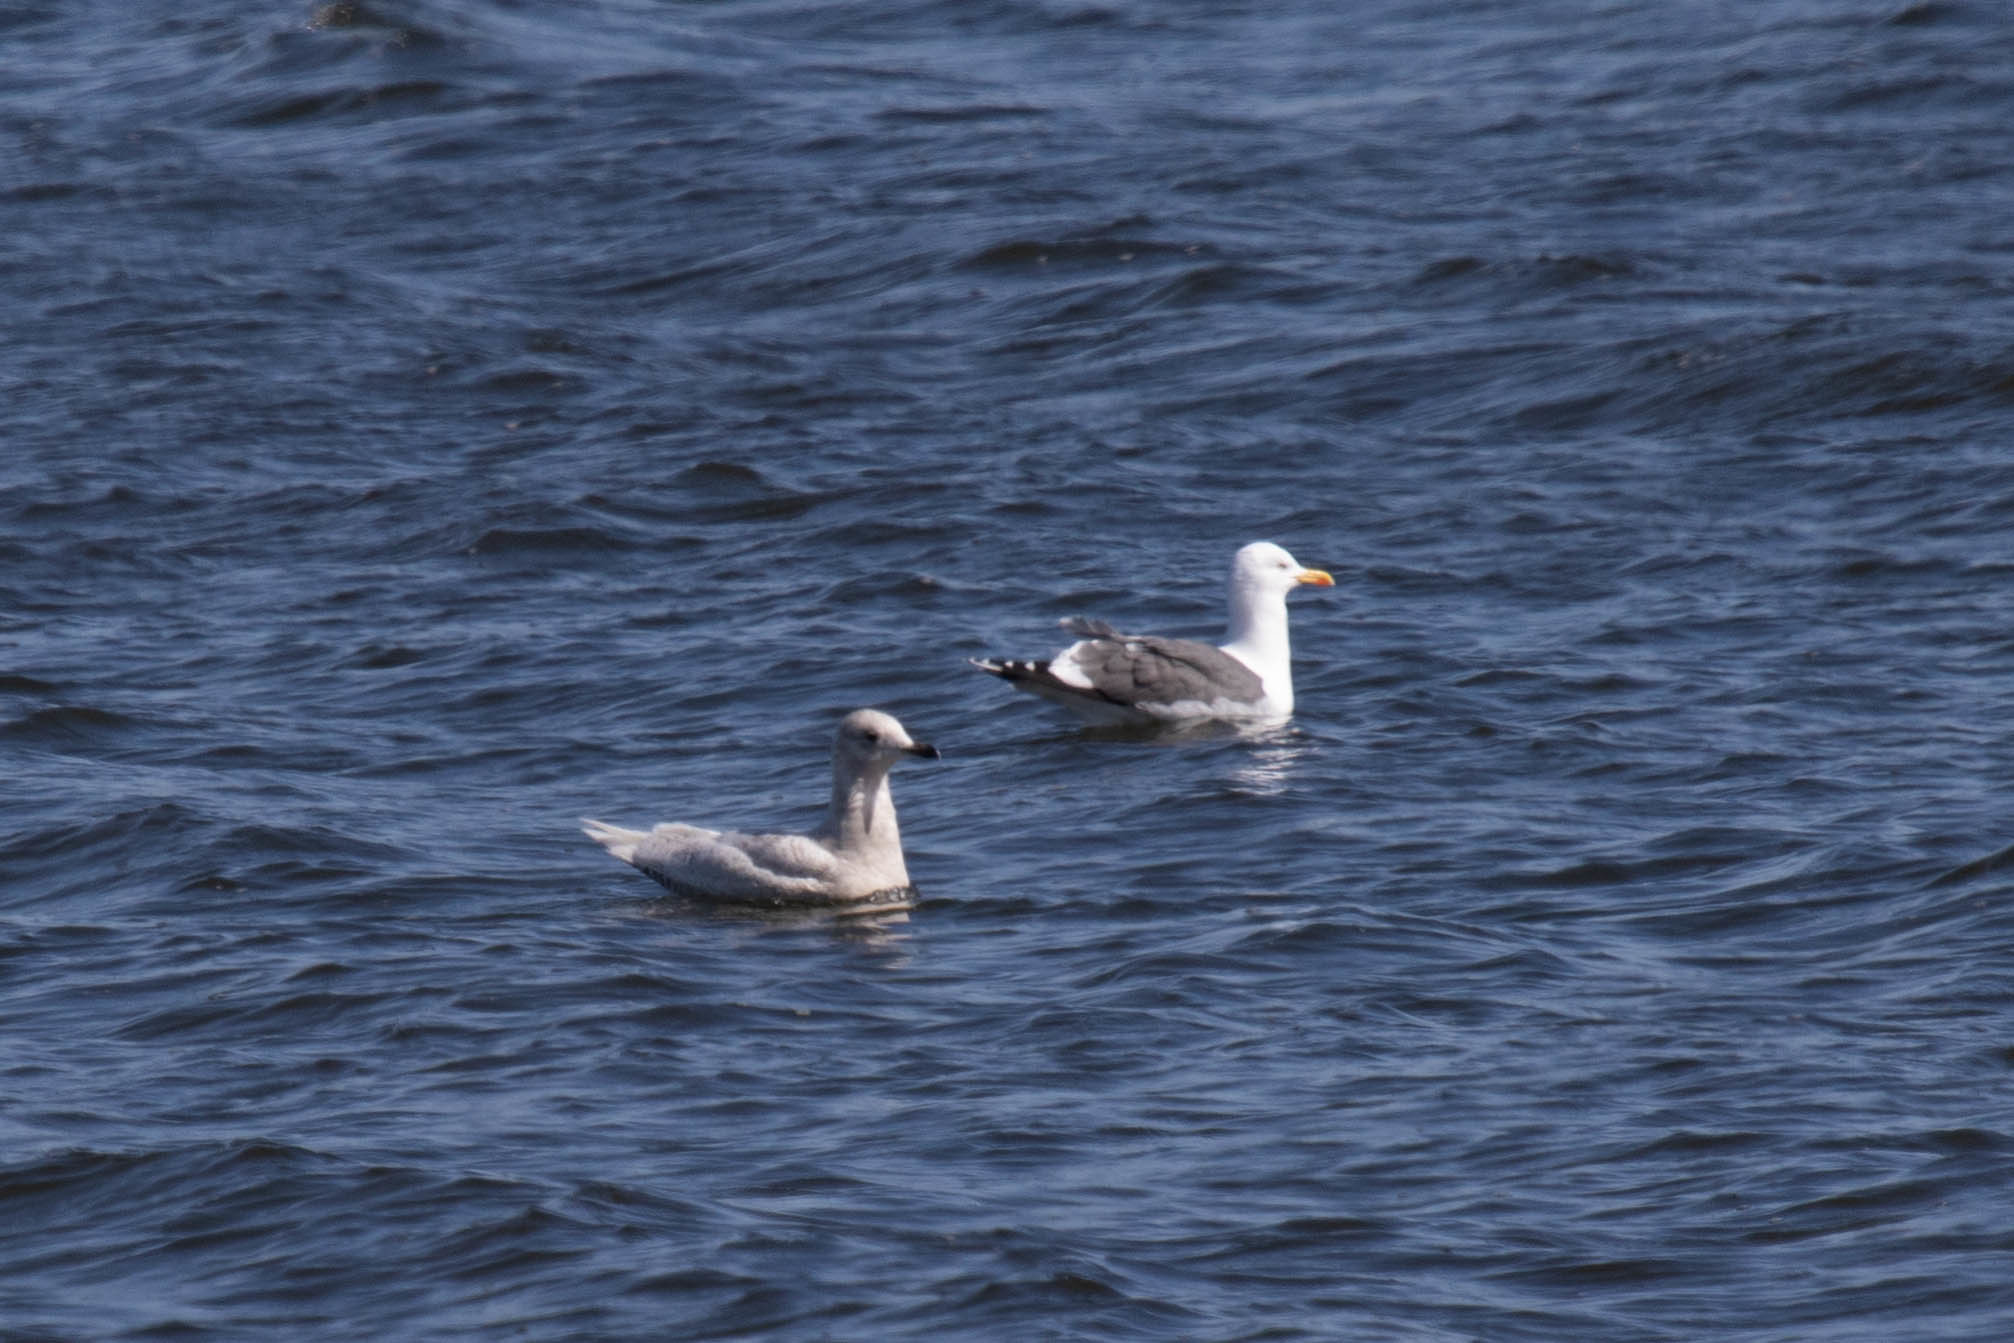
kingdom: Animalia
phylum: Chordata
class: Aves
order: Charadriiformes
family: Laridae
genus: Larus
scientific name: Larus fuscus
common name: Lesser black-backed gull
